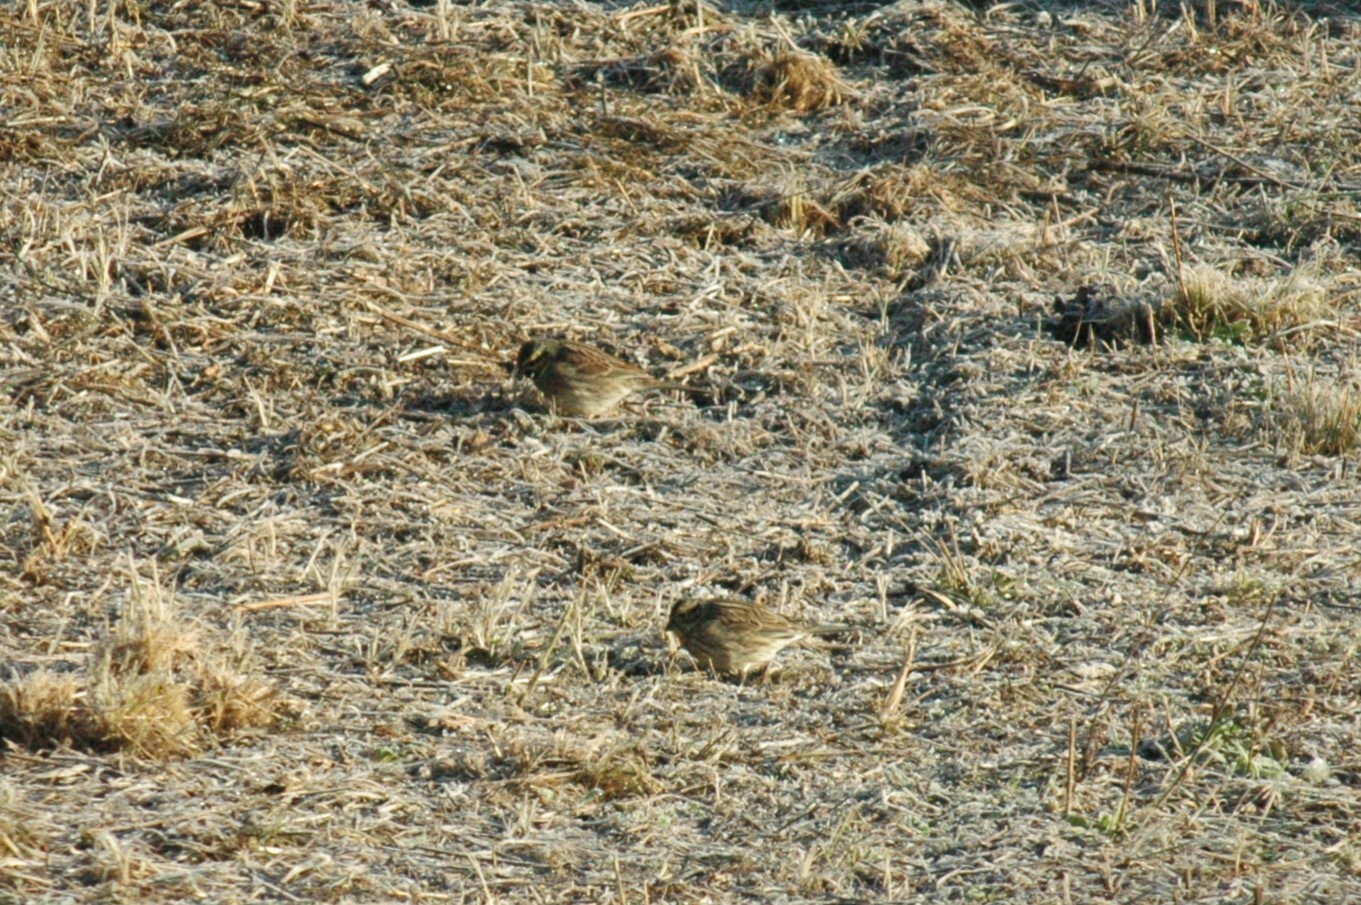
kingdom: Animalia
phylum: Chordata
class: Aves
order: Passeriformes
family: Emberizidae
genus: Emberiza
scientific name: Emberiza cirlus
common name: Cirl bunting
